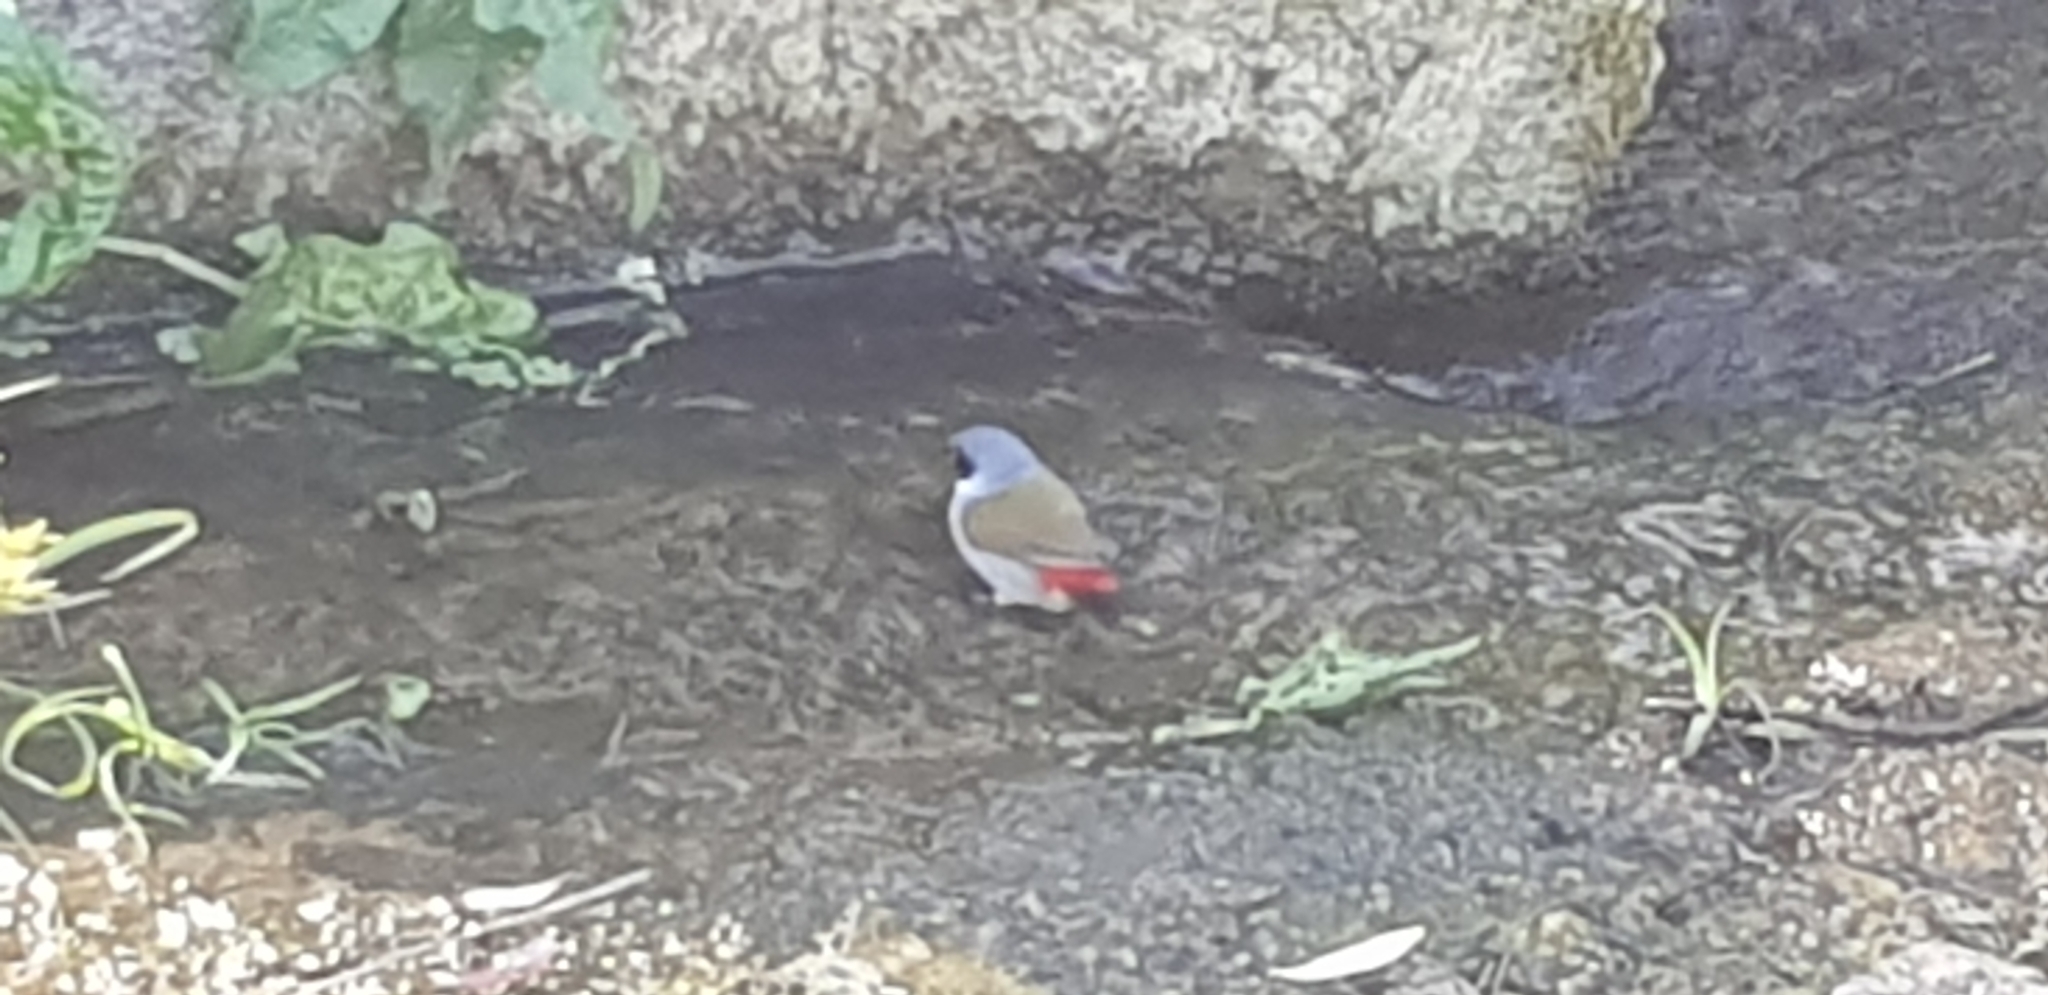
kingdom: Animalia
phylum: Chordata
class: Aves
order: Passeriformes
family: Estrildidae
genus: Coccopygia
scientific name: Coccopygia melanotis
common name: Swee waxbill
